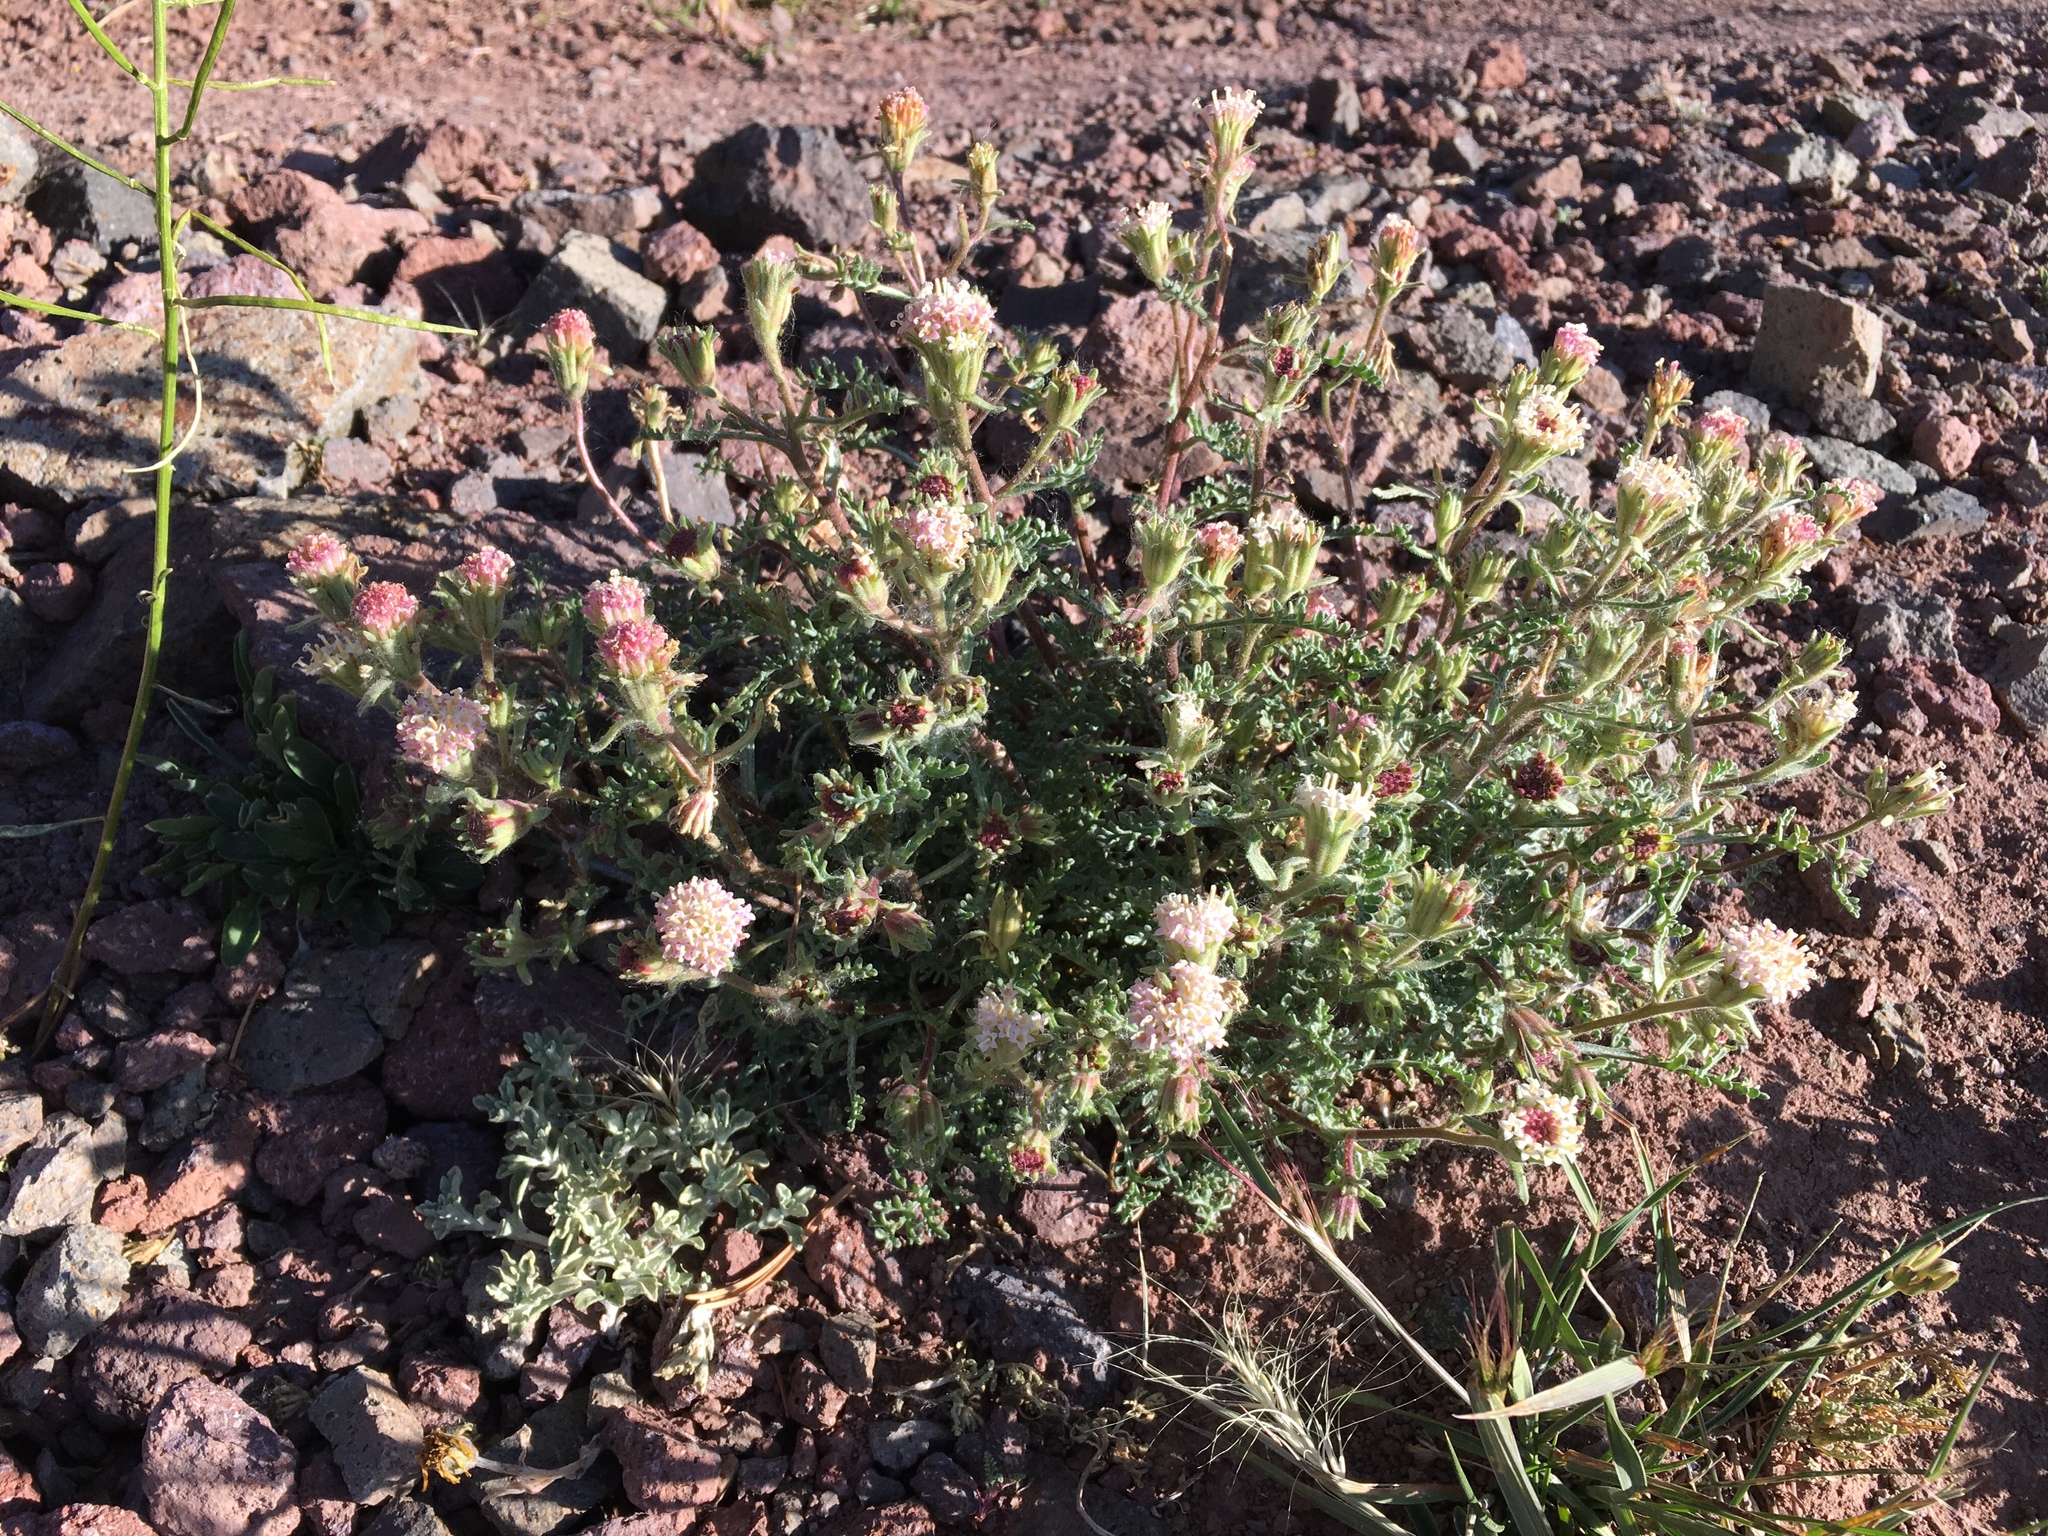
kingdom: Plantae
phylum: Tracheophyta
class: Magnoliopsida
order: Asterales
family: Asteraceae
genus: Chaenactis
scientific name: Chaenactis douglasii
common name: Hoary pincushion
